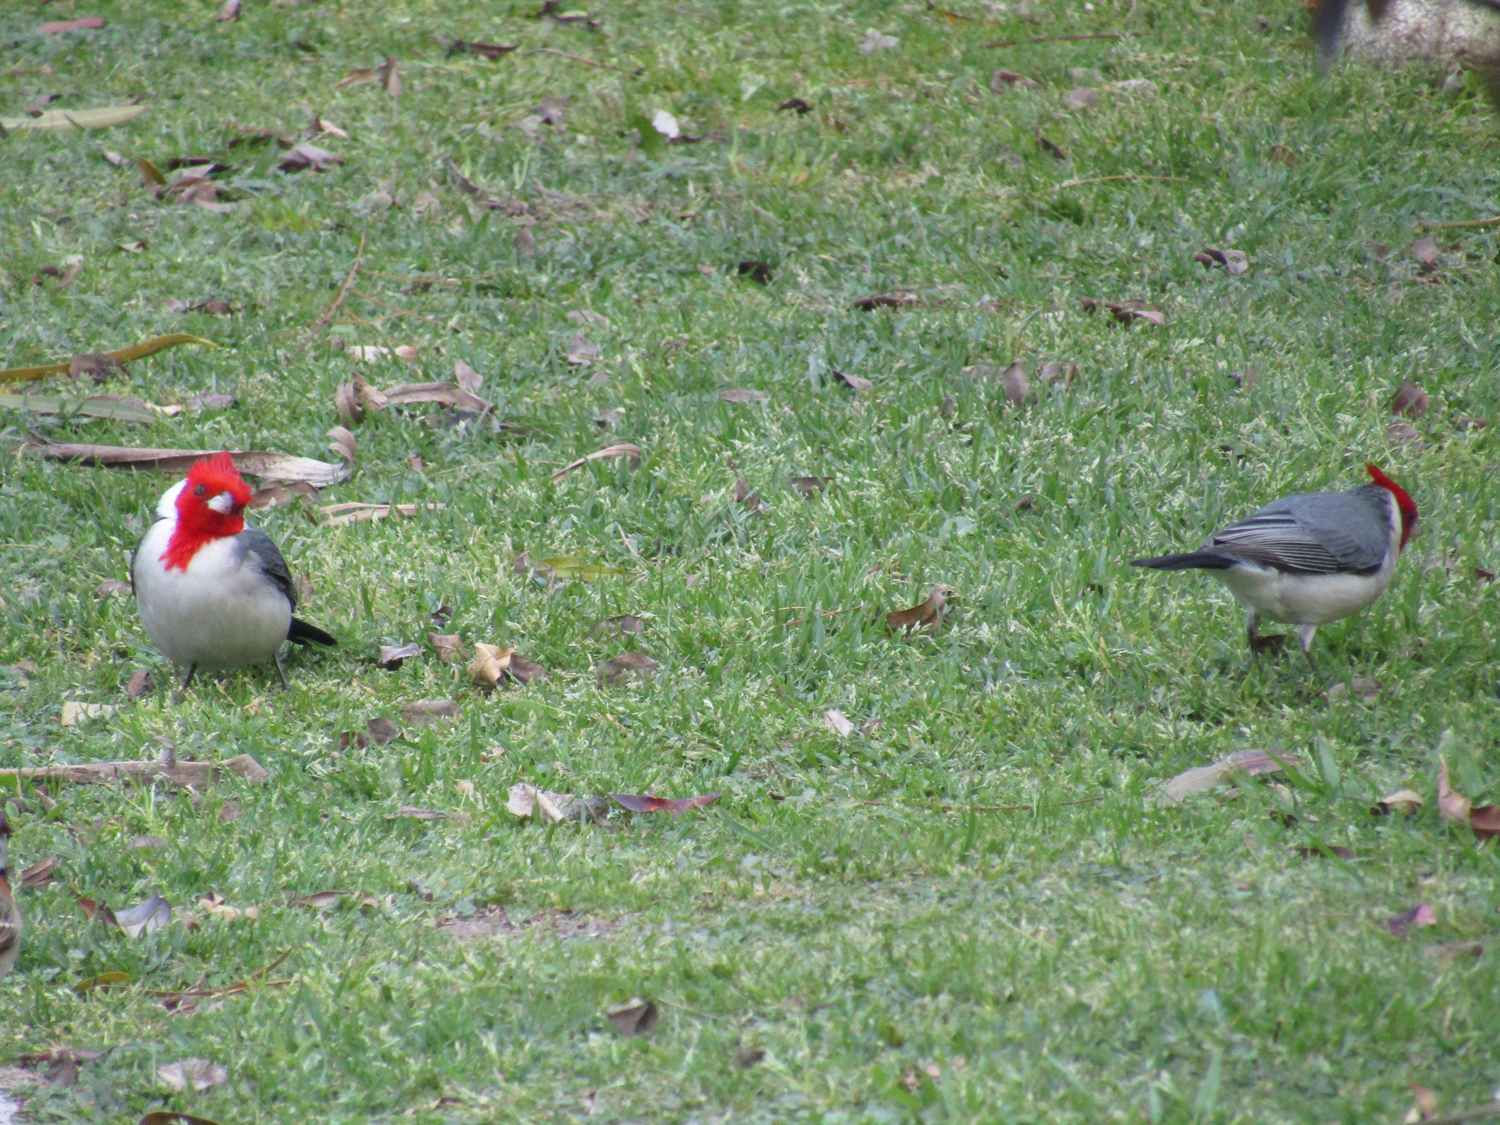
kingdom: Animalia
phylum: Chordata
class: Aves
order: Passeriformes
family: Thraupidae
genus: Paroaria
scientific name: Paroaria coronata
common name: Red-crested cardinal
